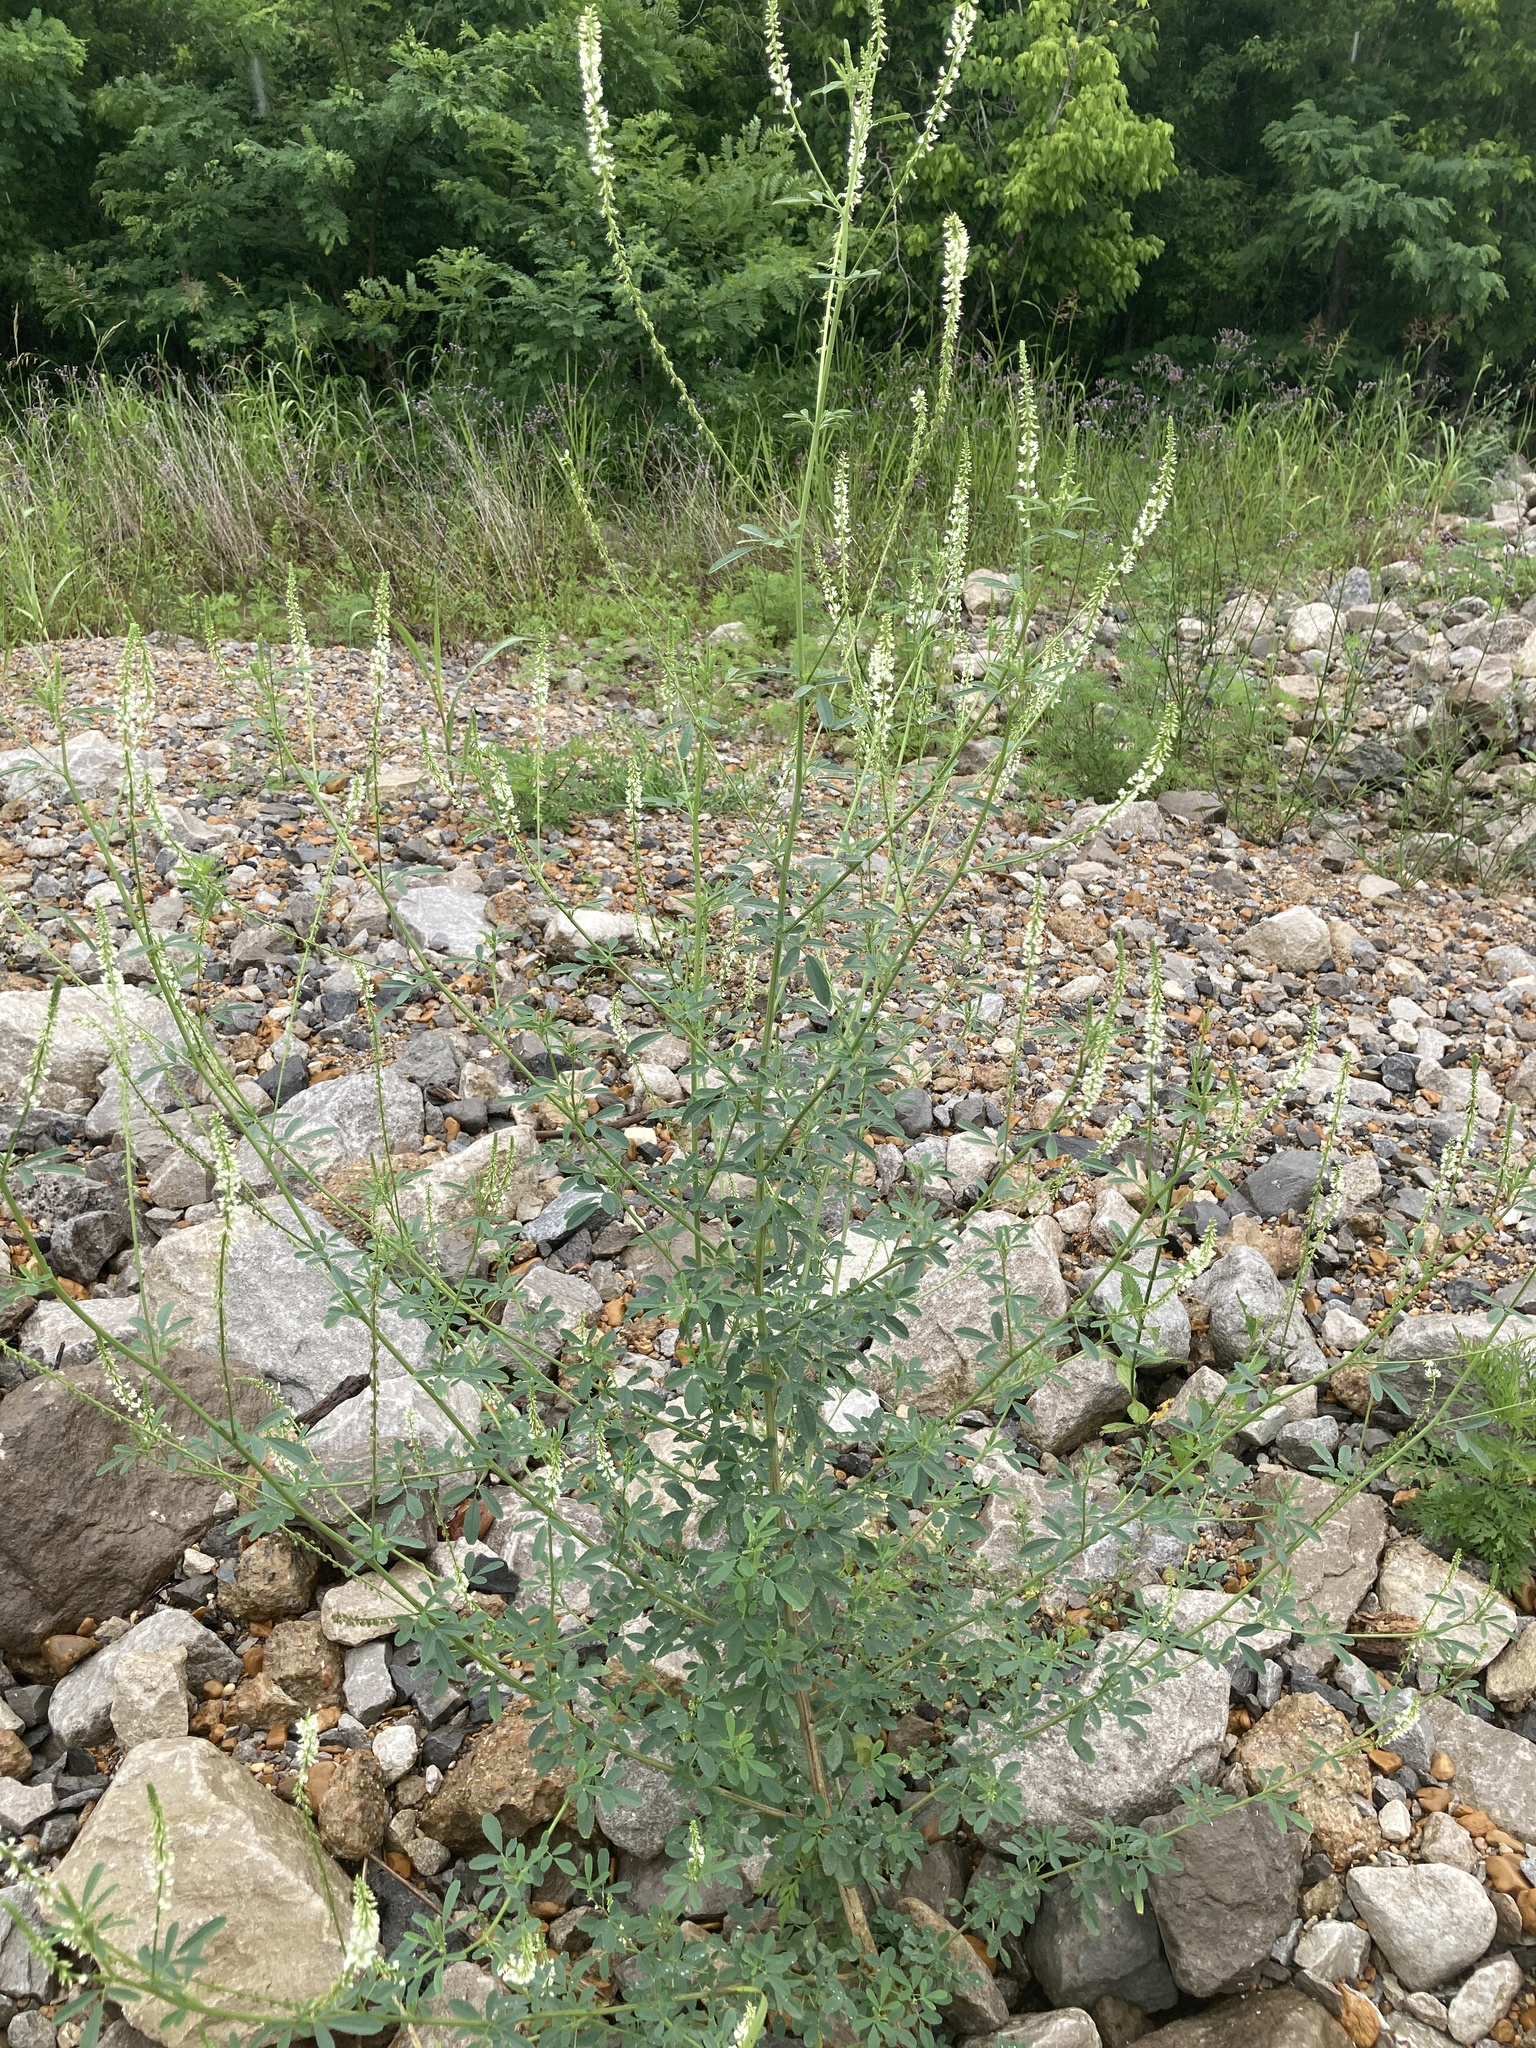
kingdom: Plantae
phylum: Tracheophyta
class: Magnoliopsida
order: Fabales
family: Fabaceae
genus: Melilotus
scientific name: Melilotus albus
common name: White melilot
